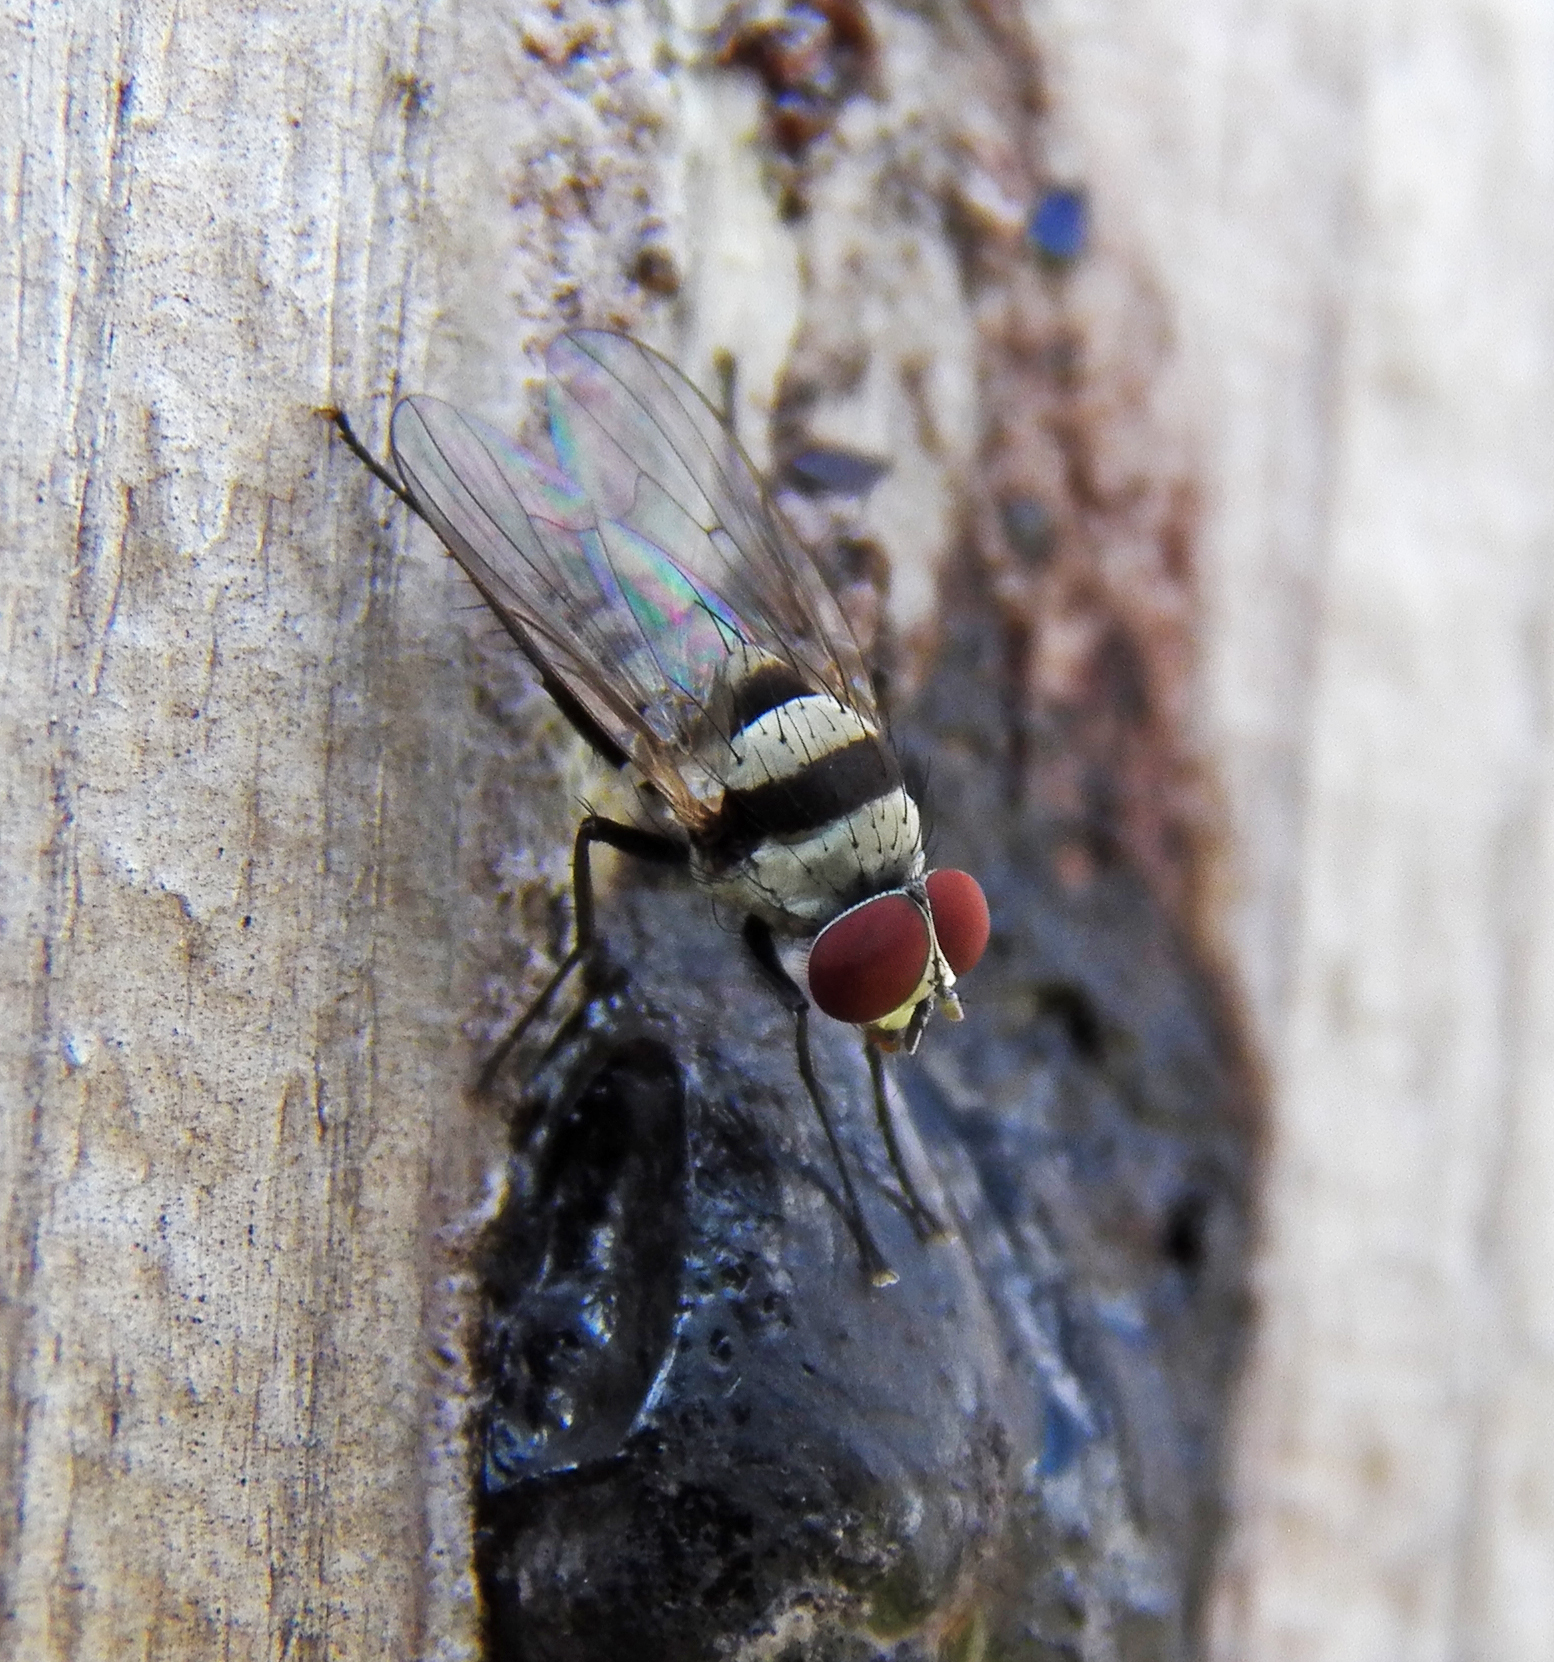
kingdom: Animalia
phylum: Arthropoda
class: Insecta
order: Diptera
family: Anthomyiidae
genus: Anthomyia
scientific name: Anthomyia illocata
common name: Fly
